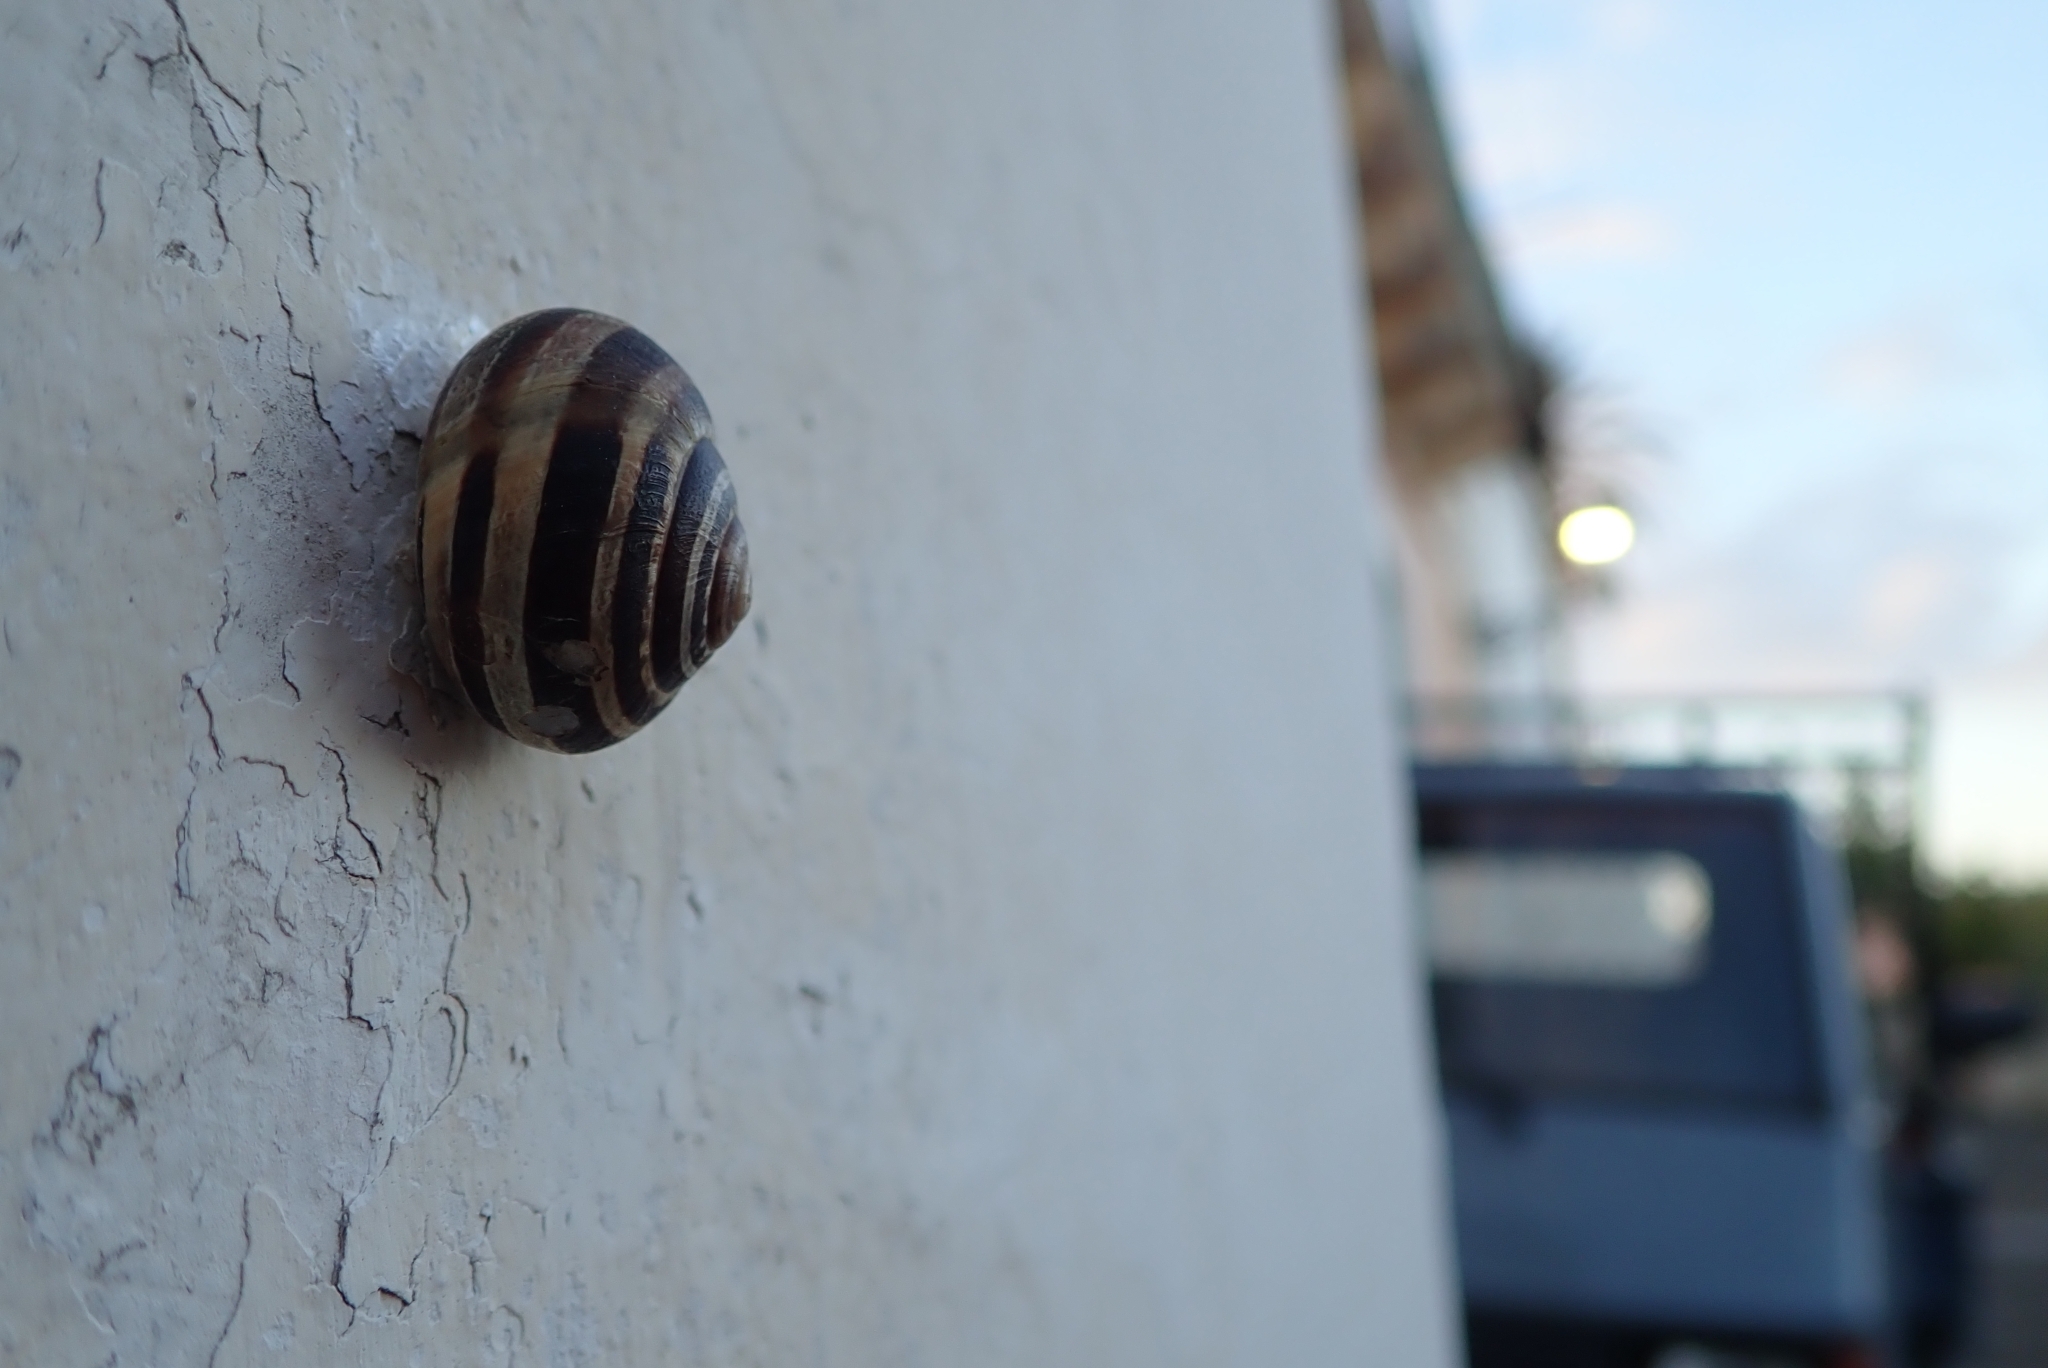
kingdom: Animalia
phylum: Mollusca
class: Gastropoda
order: Stylommatophora
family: Helicidae
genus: Eobania
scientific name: Eobania vermiculata
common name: Chocolateband snail
